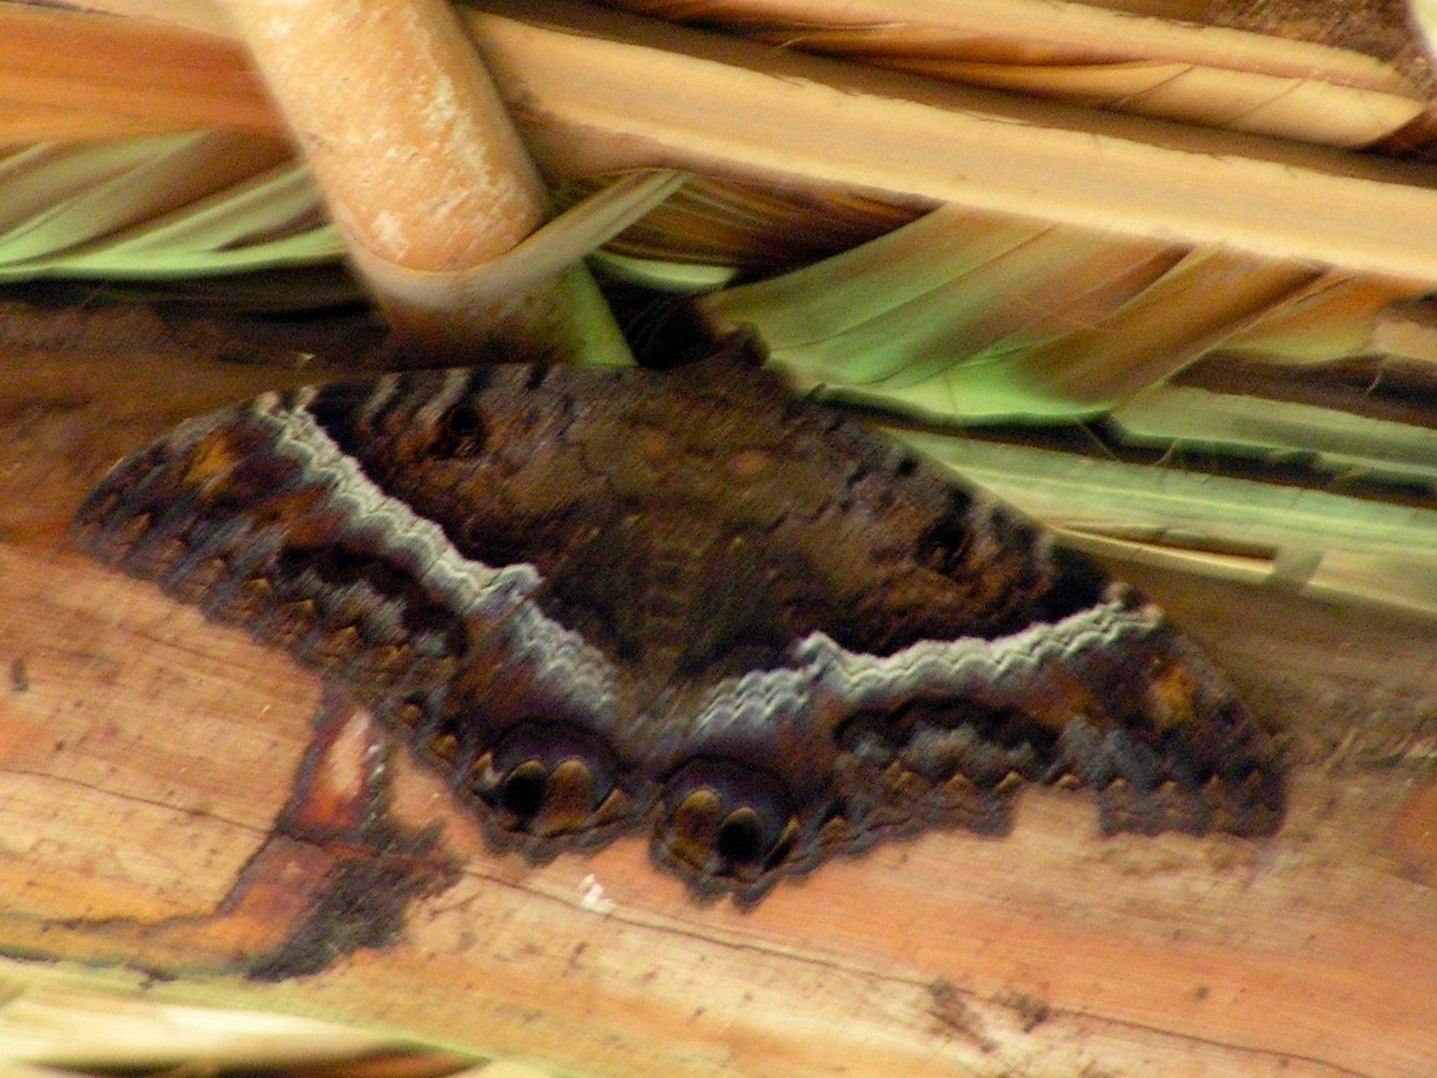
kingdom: Animalia
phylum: Arthropoda
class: Insecta
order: Lepidoptera
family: Erebidae
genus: Ascalapha
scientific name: Ascalapha odorata
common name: Black witch
